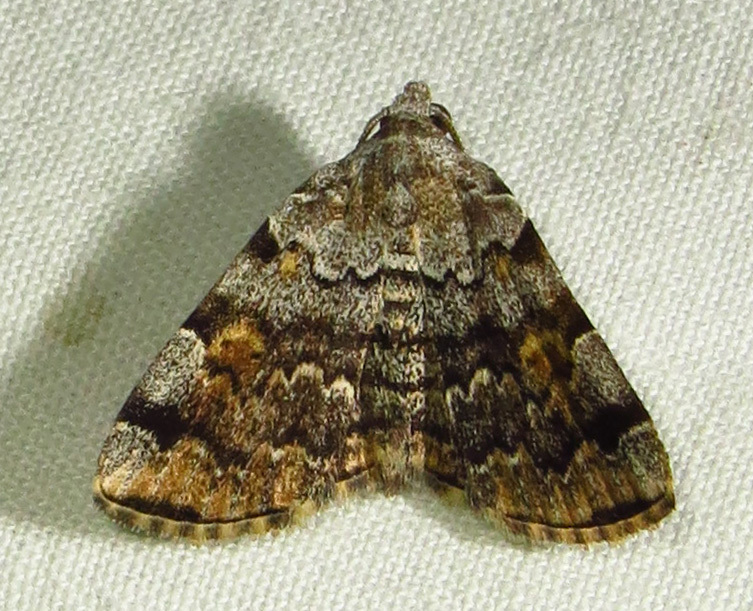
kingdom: Animalia
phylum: Arthropoda
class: Insecta
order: Lepidoptera
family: Erebidae
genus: Idia
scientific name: Idia americalis
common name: American idia moth
